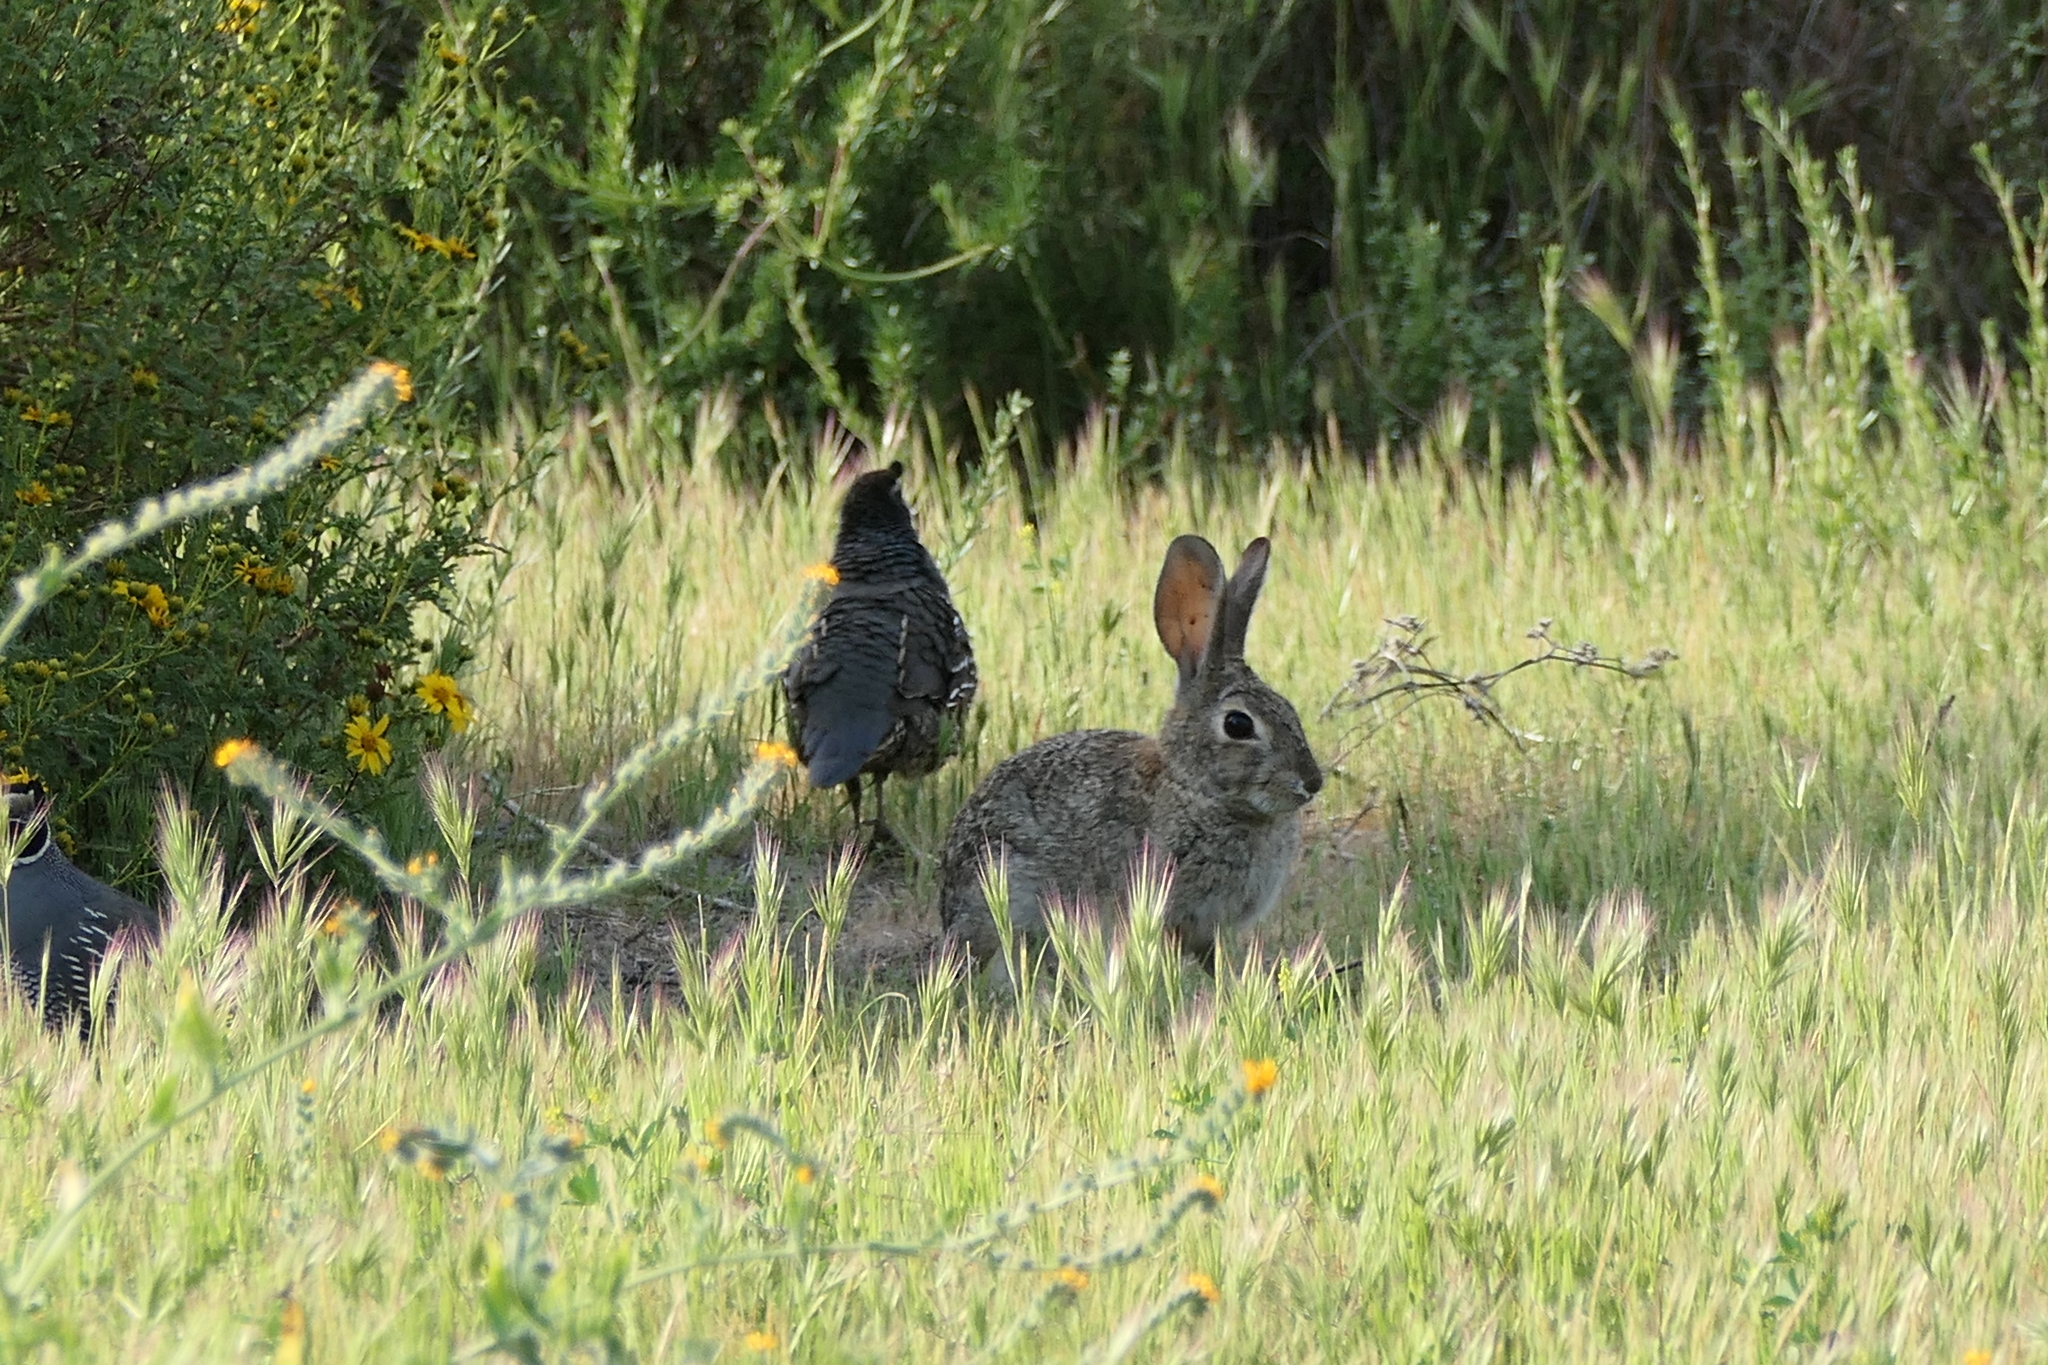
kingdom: Animalia
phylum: Chordata
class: Mammalia
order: Lagomorpha
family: Leporidae
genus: Sylvilagus
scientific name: Sylvilagus audubonii
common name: Desert cottontail
